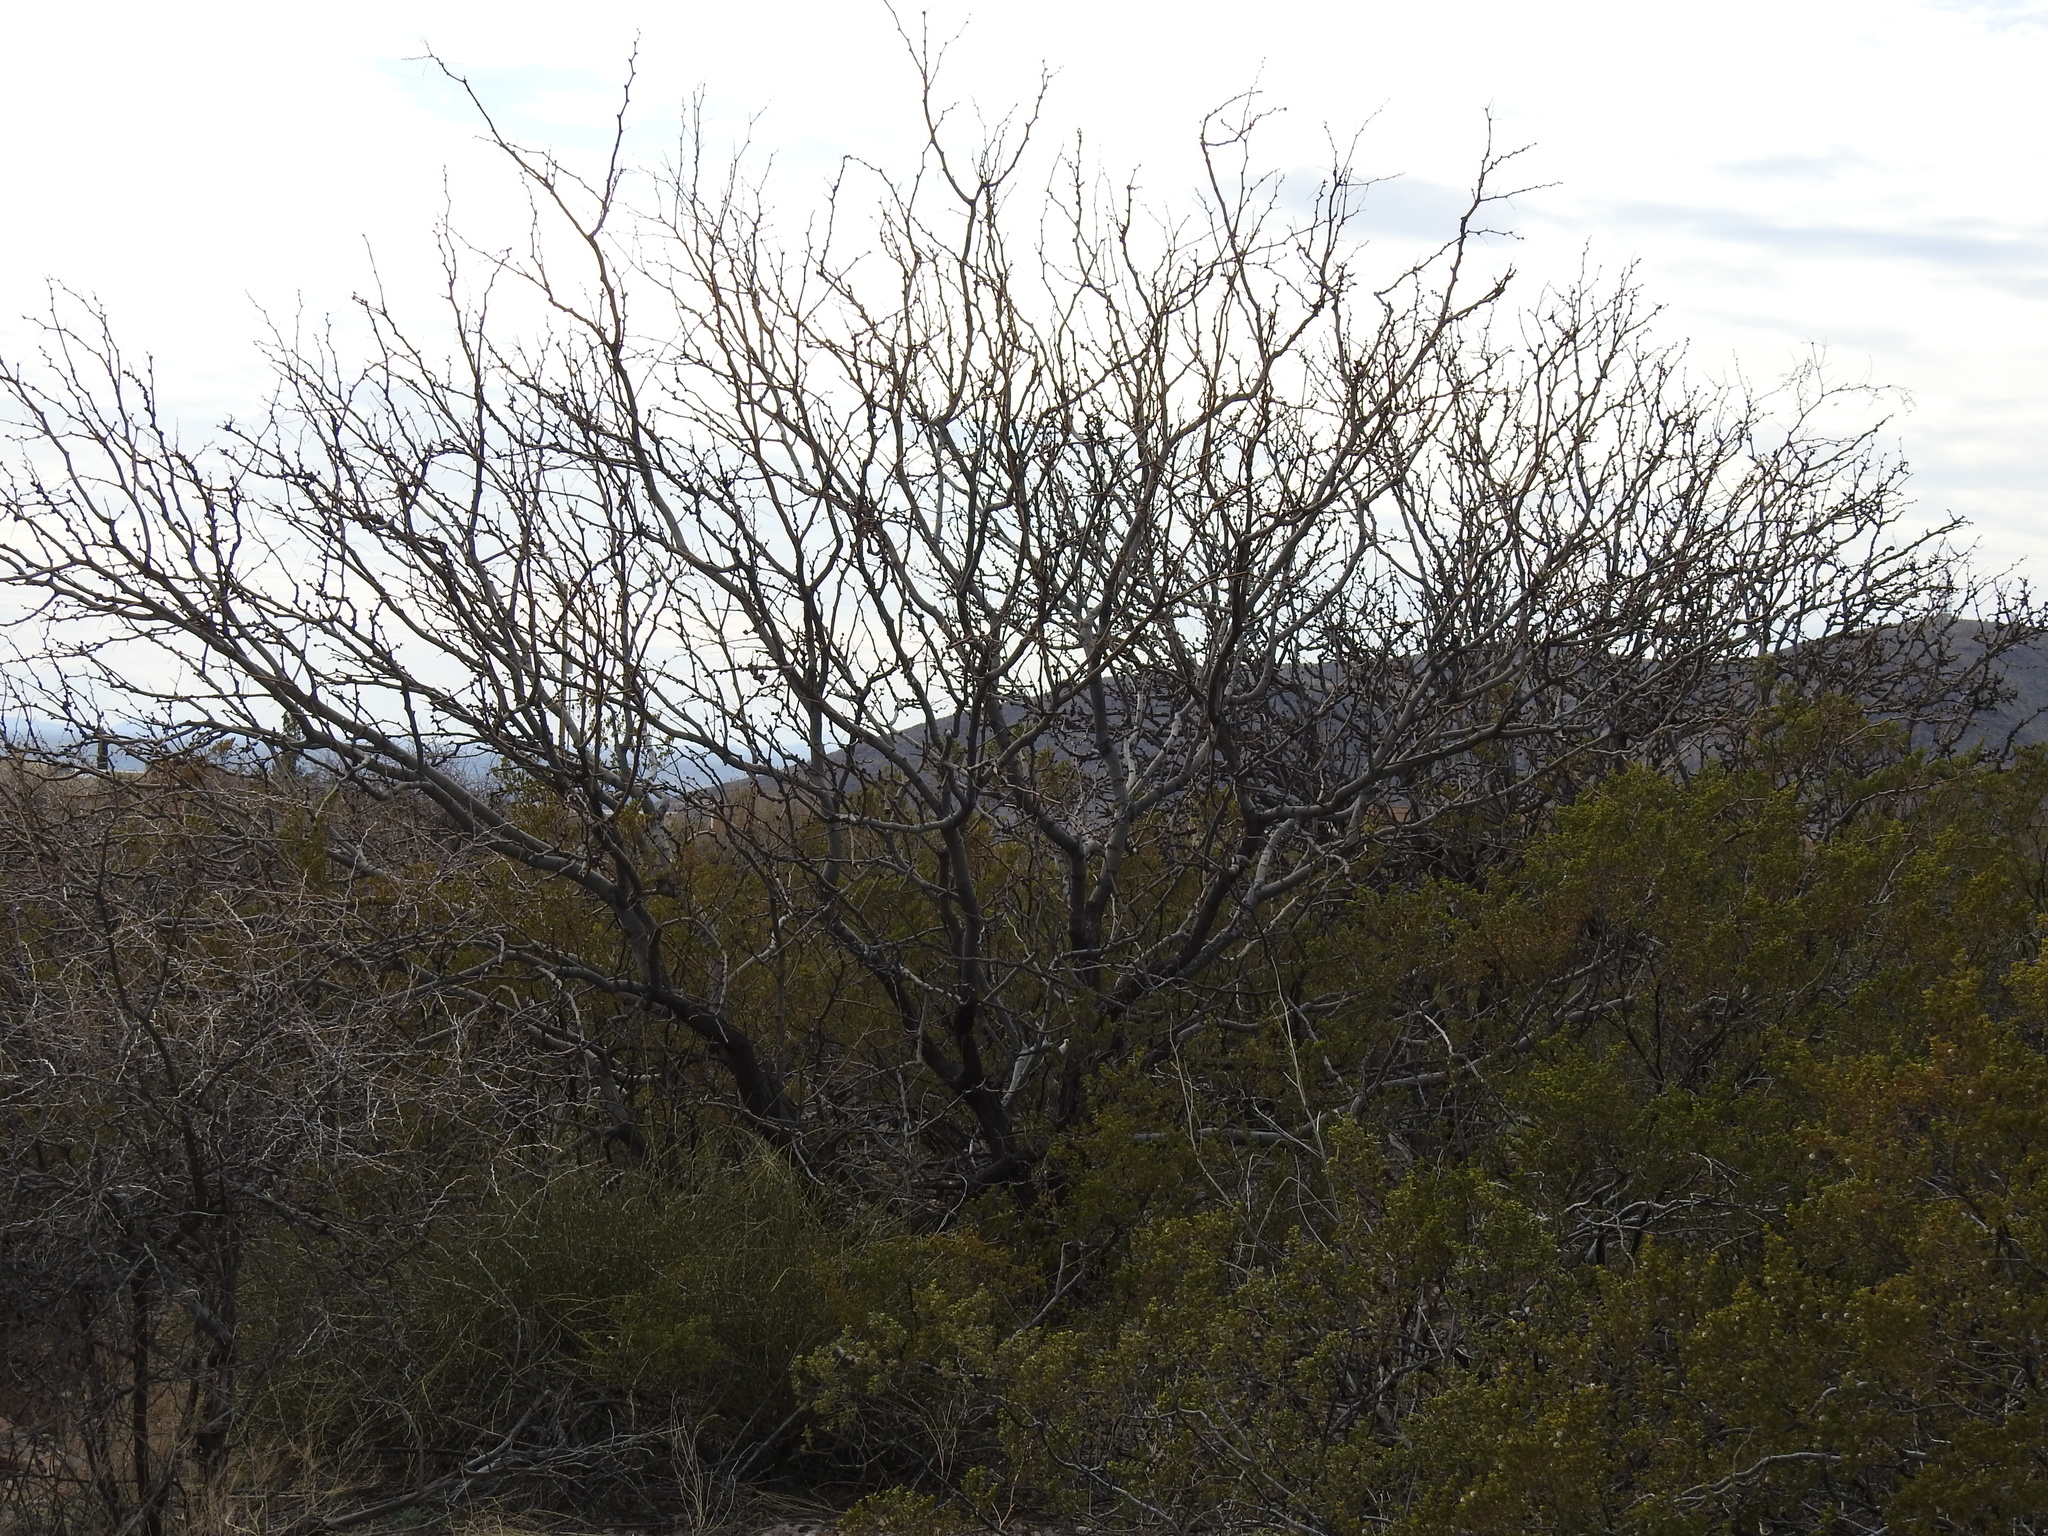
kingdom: Plantae
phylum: Tracheophyta
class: Magnoliopsida
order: Fabales
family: Fabaceae
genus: Prosopis
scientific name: Prosopis glandulosa
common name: Honey mesquite
